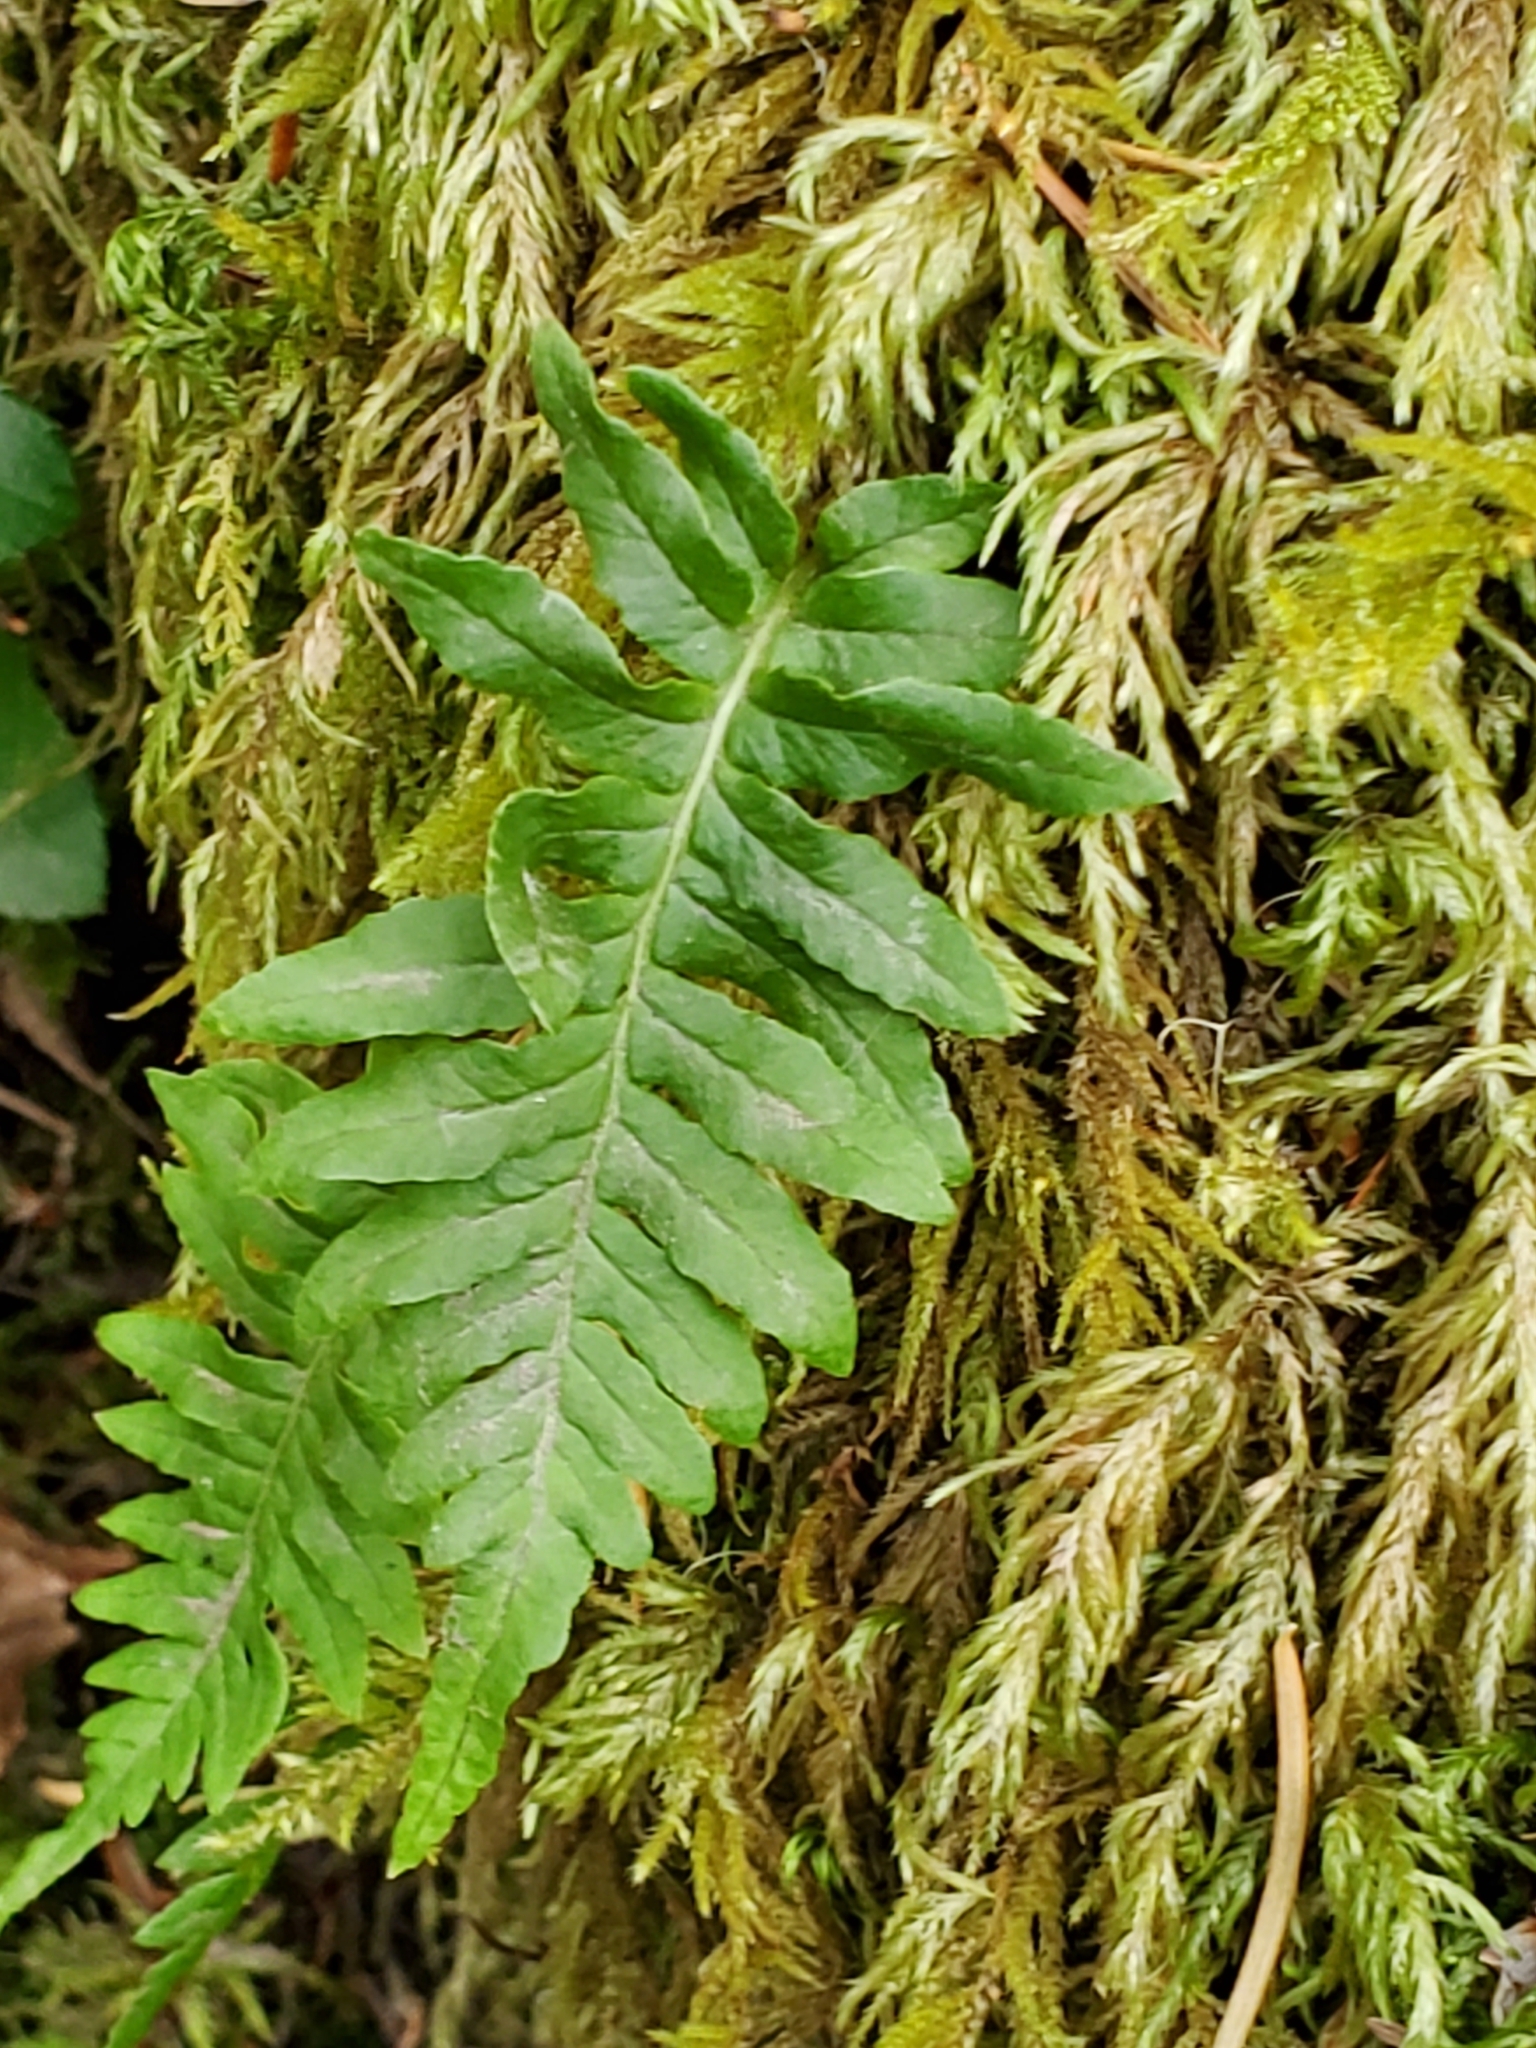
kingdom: Plantae
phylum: Tracheophyta
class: Polypodiopsida
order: Polypodiales
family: Polypodiaceae
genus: Polypodium
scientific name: Polypodium glycyrrhiza
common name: Licorice fern
